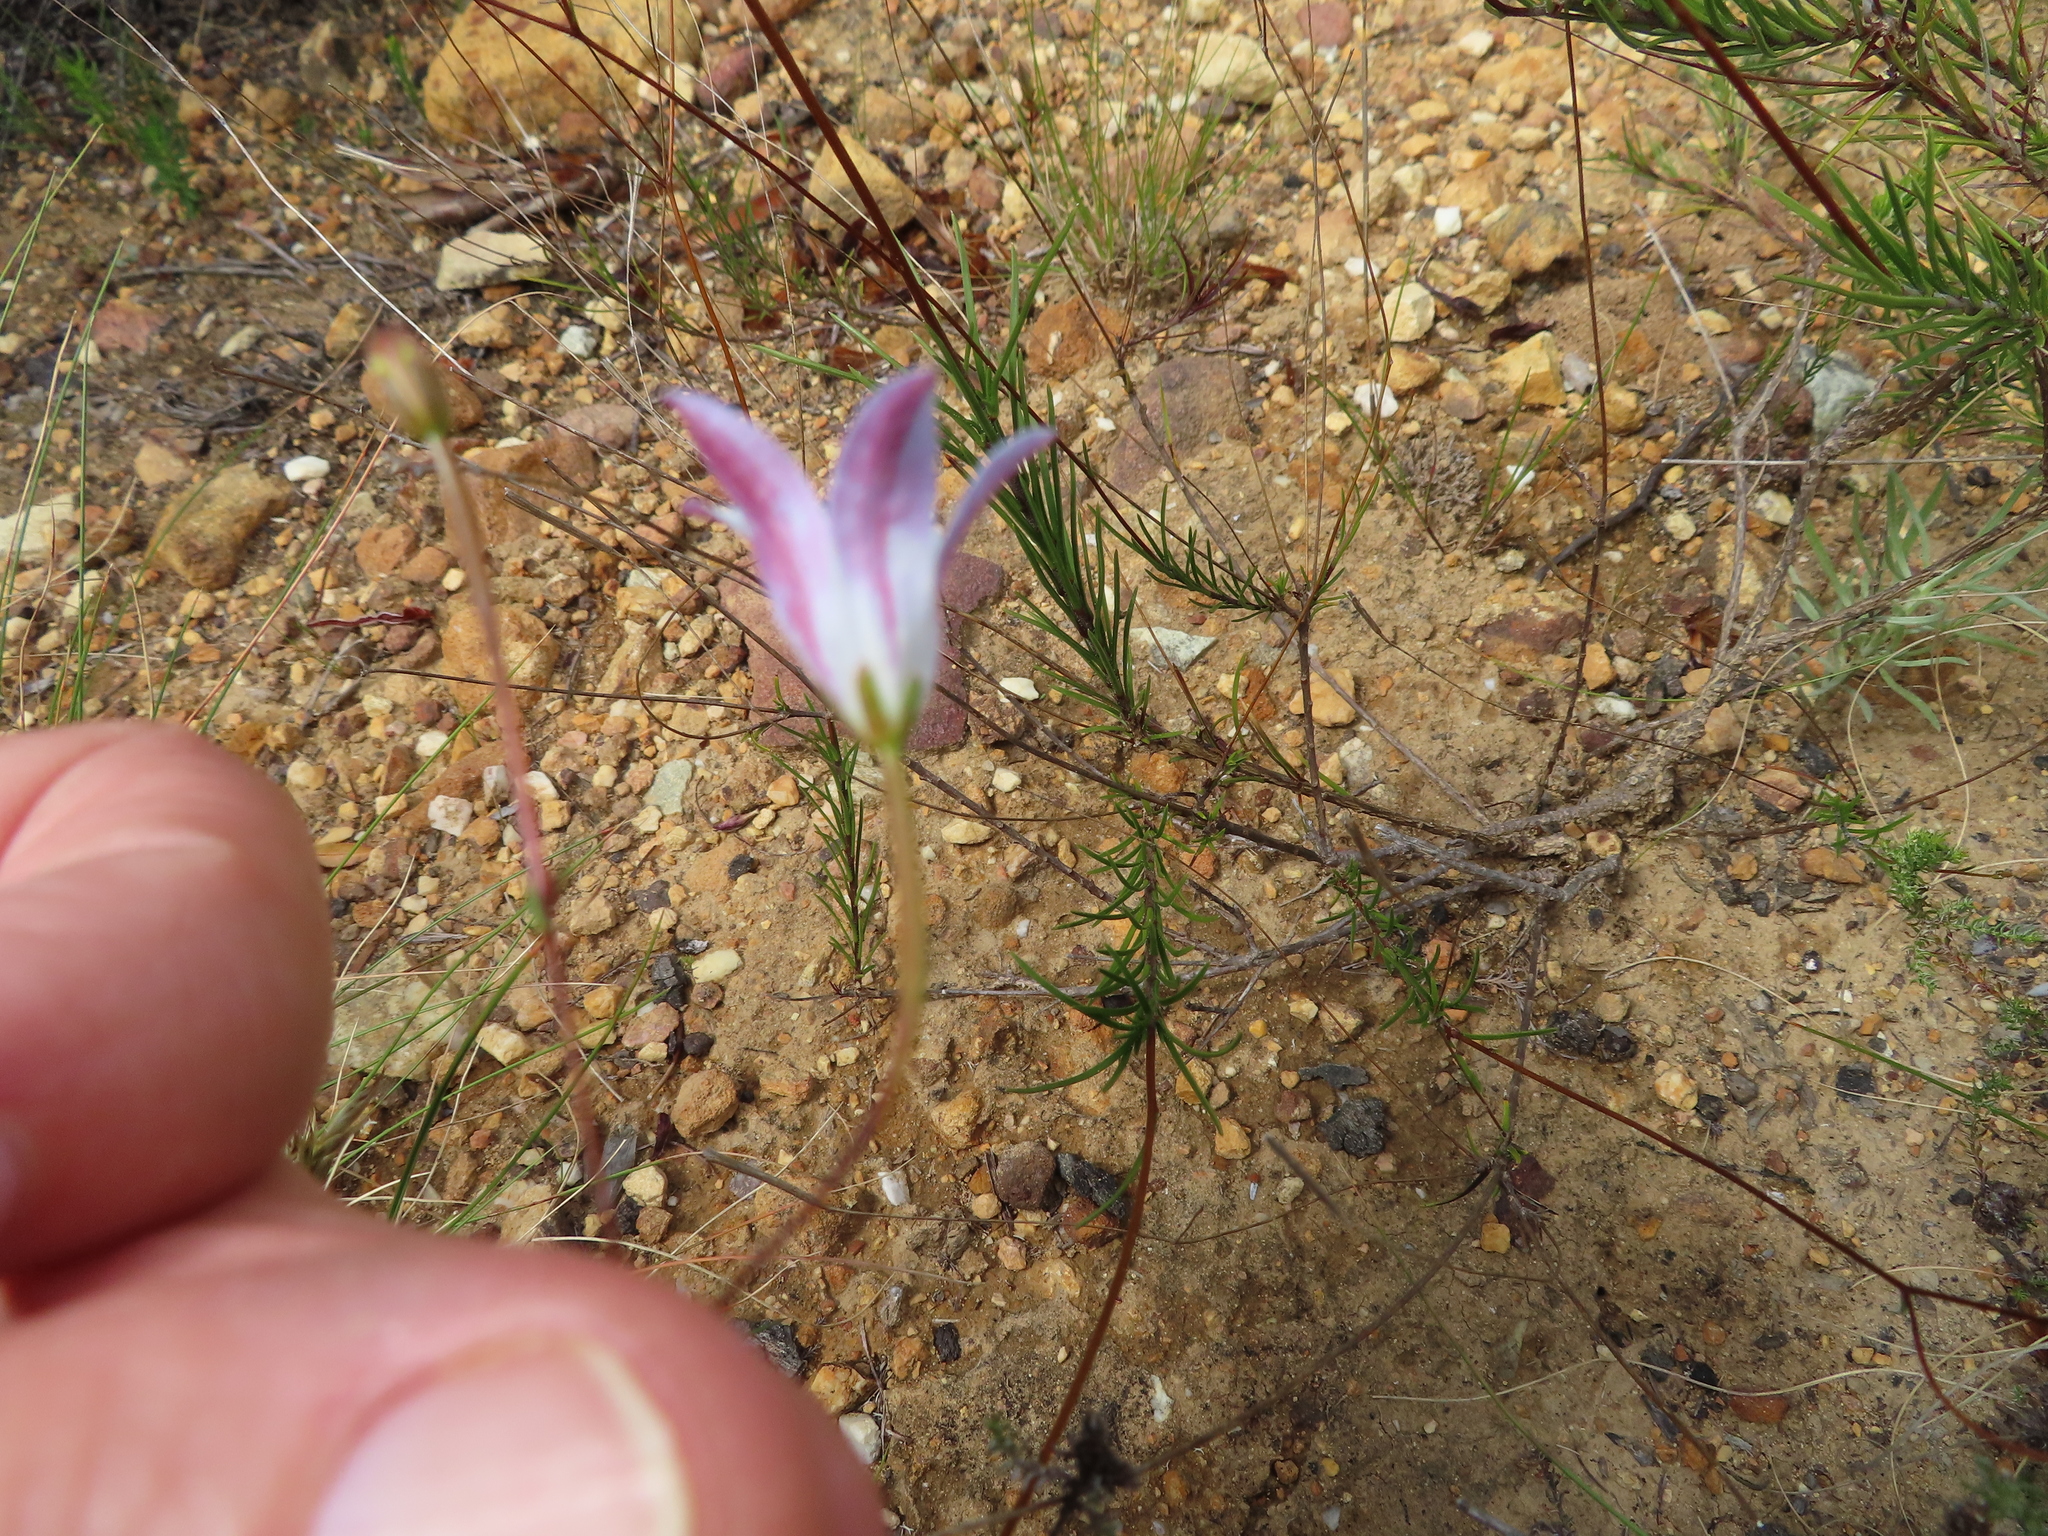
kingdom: Plantae
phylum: Tracheophyta
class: Magnoliopsida
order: Asterales
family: Campanulaceae
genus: Prismatocarpus
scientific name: Prismatocarpus brevilobus
